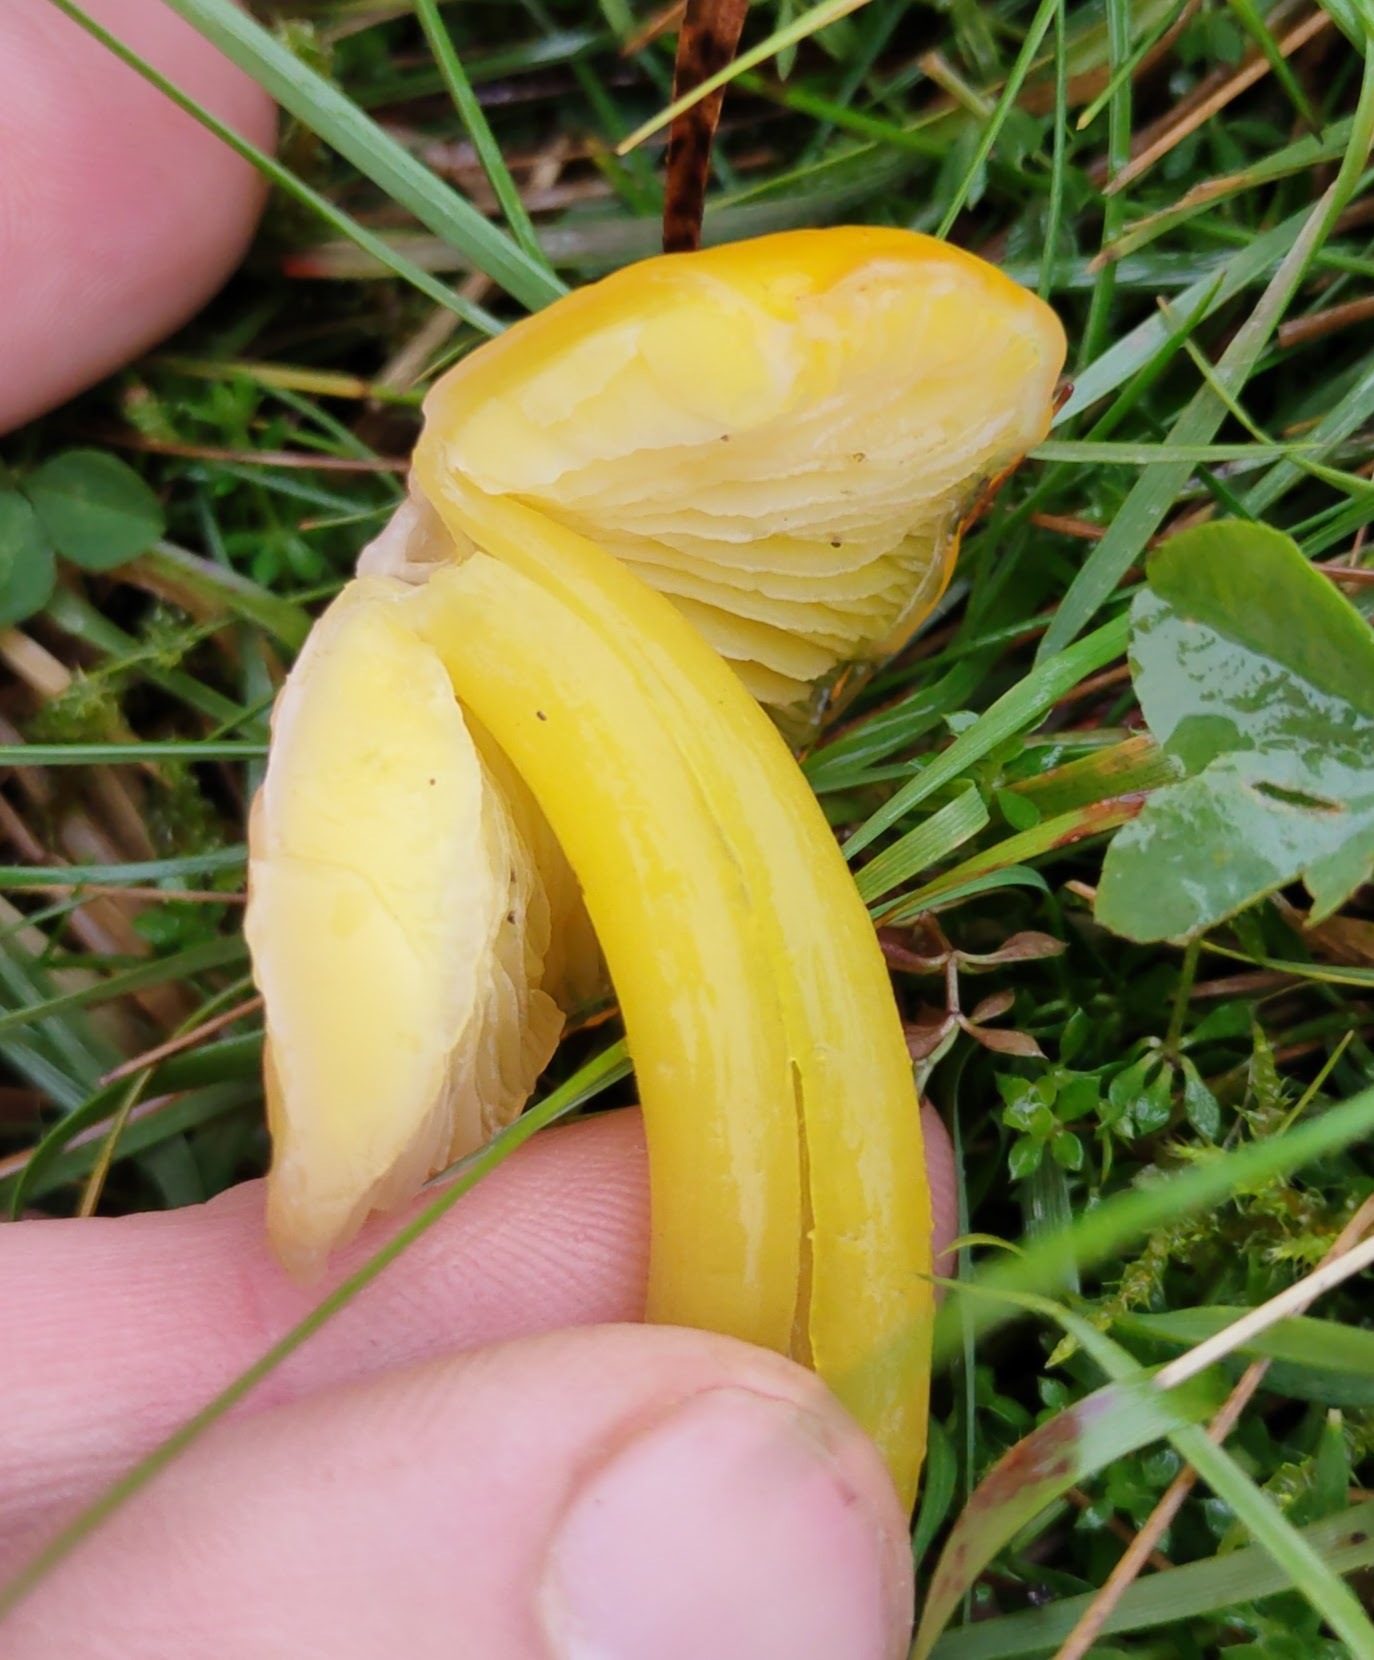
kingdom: Fungi
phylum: Basidiomycota
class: Agaricomycetes
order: Agaricales
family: Hygrophoraceae
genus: Hygrocybe
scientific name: Hygrocybe chlorophana
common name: Golden waxcap
